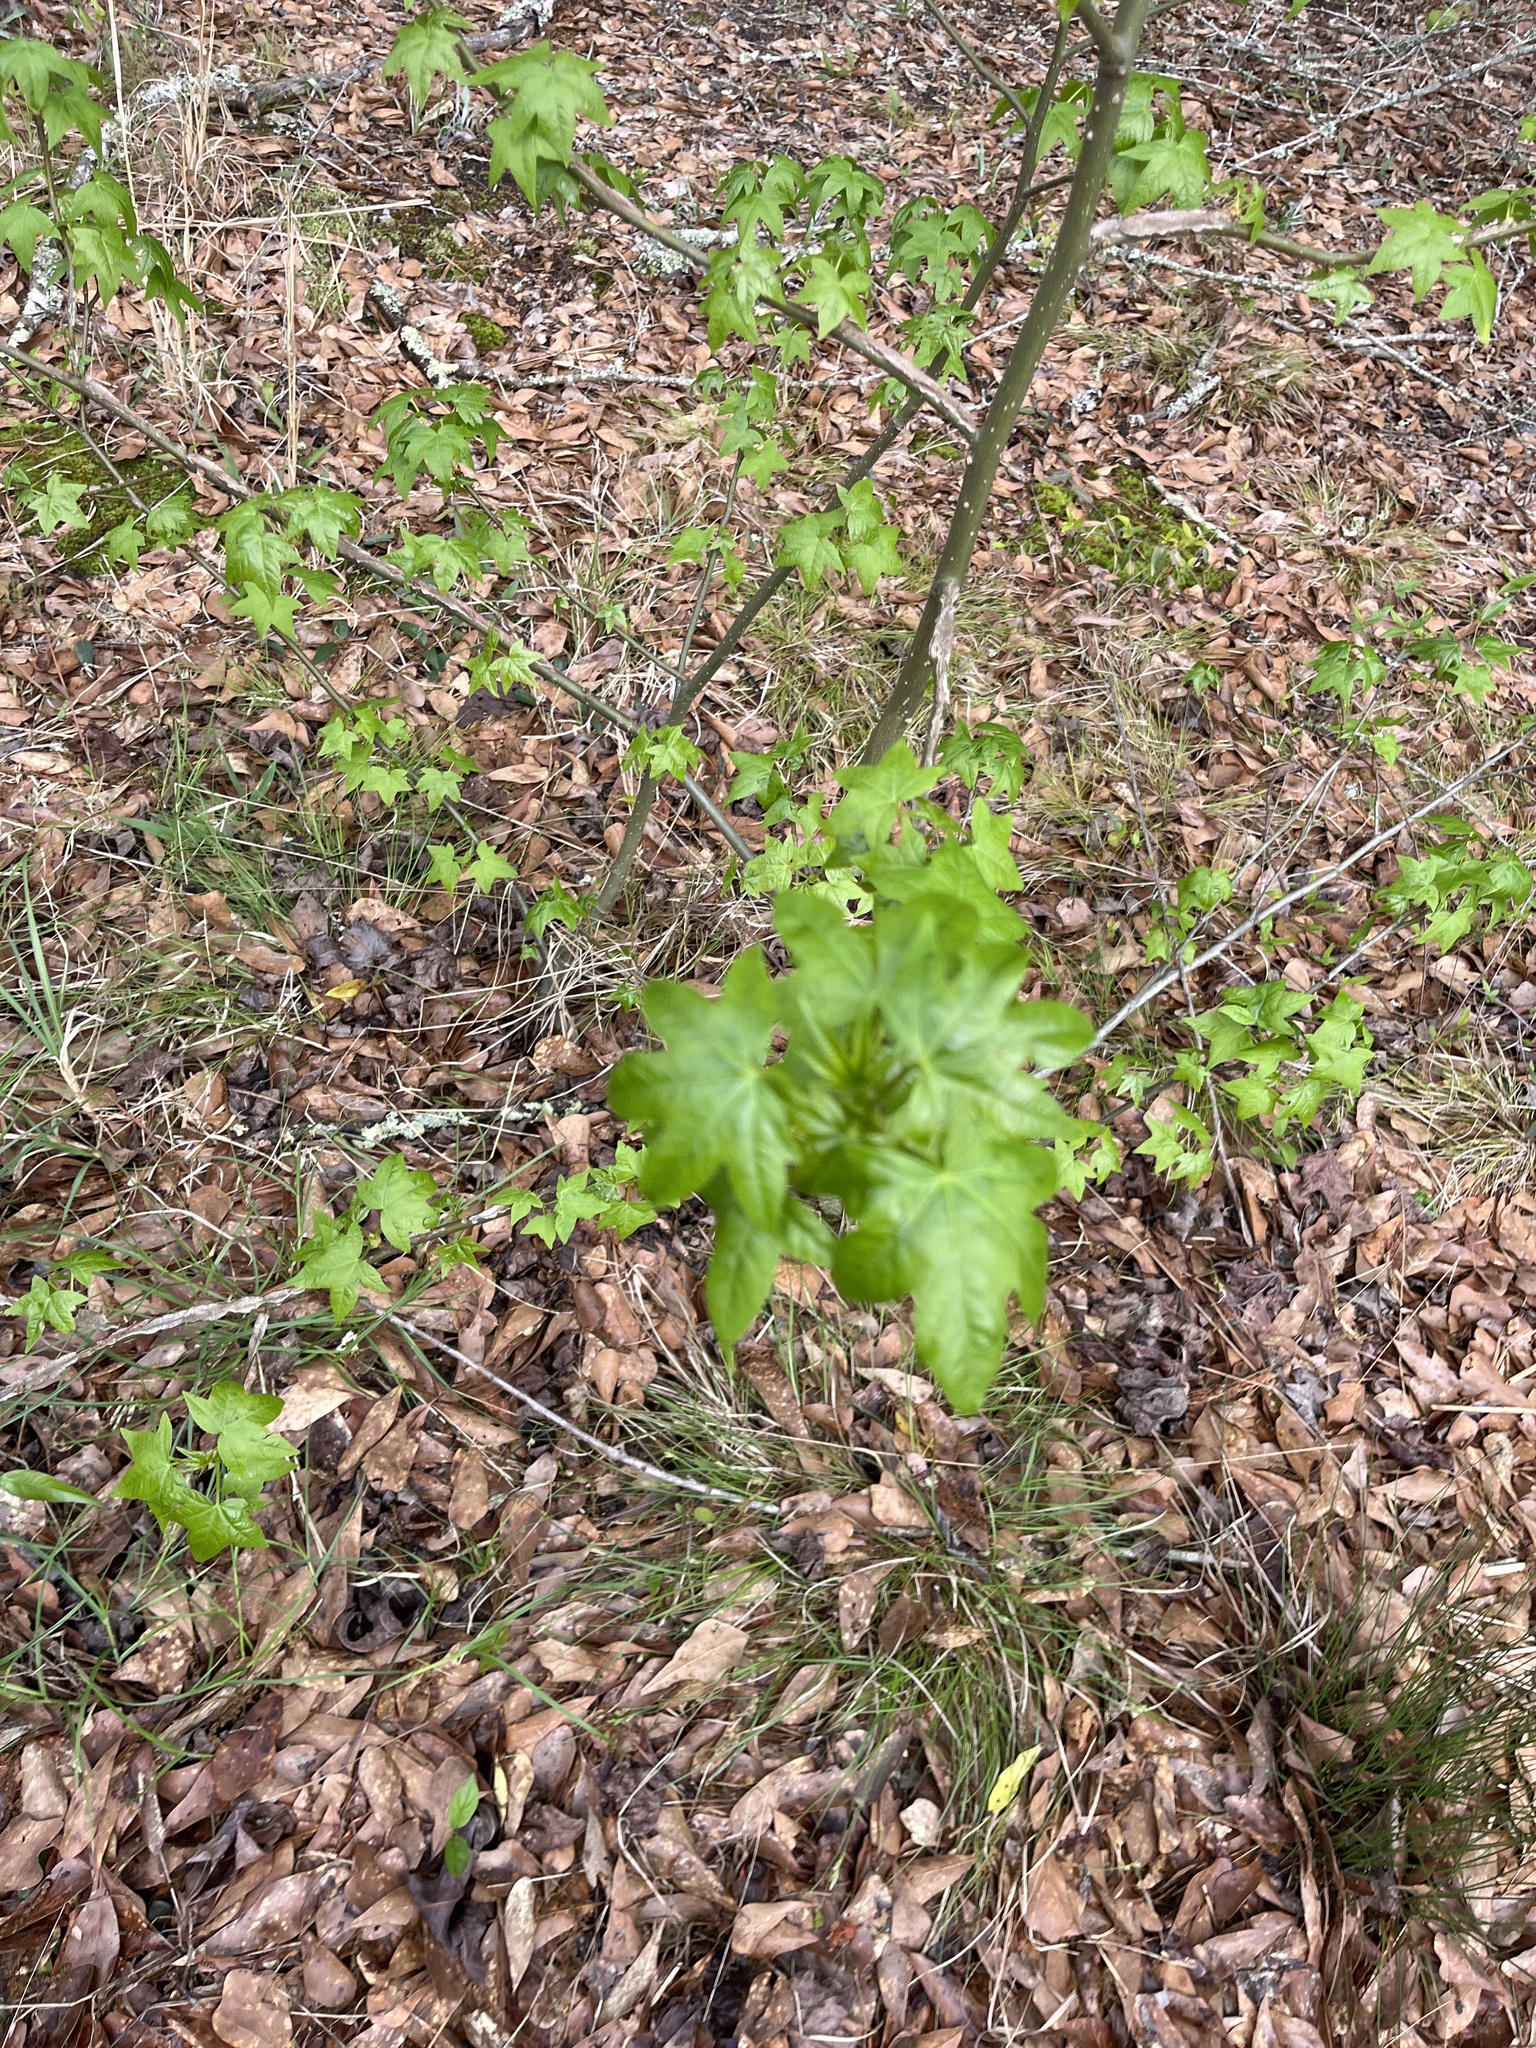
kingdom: Plantae
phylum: Tracheophyta
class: Magnoliopsida
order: Saxifragales
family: Altingiaceae
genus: Liquidambar
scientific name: Liquidambar styraciflua
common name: Sweet gum
